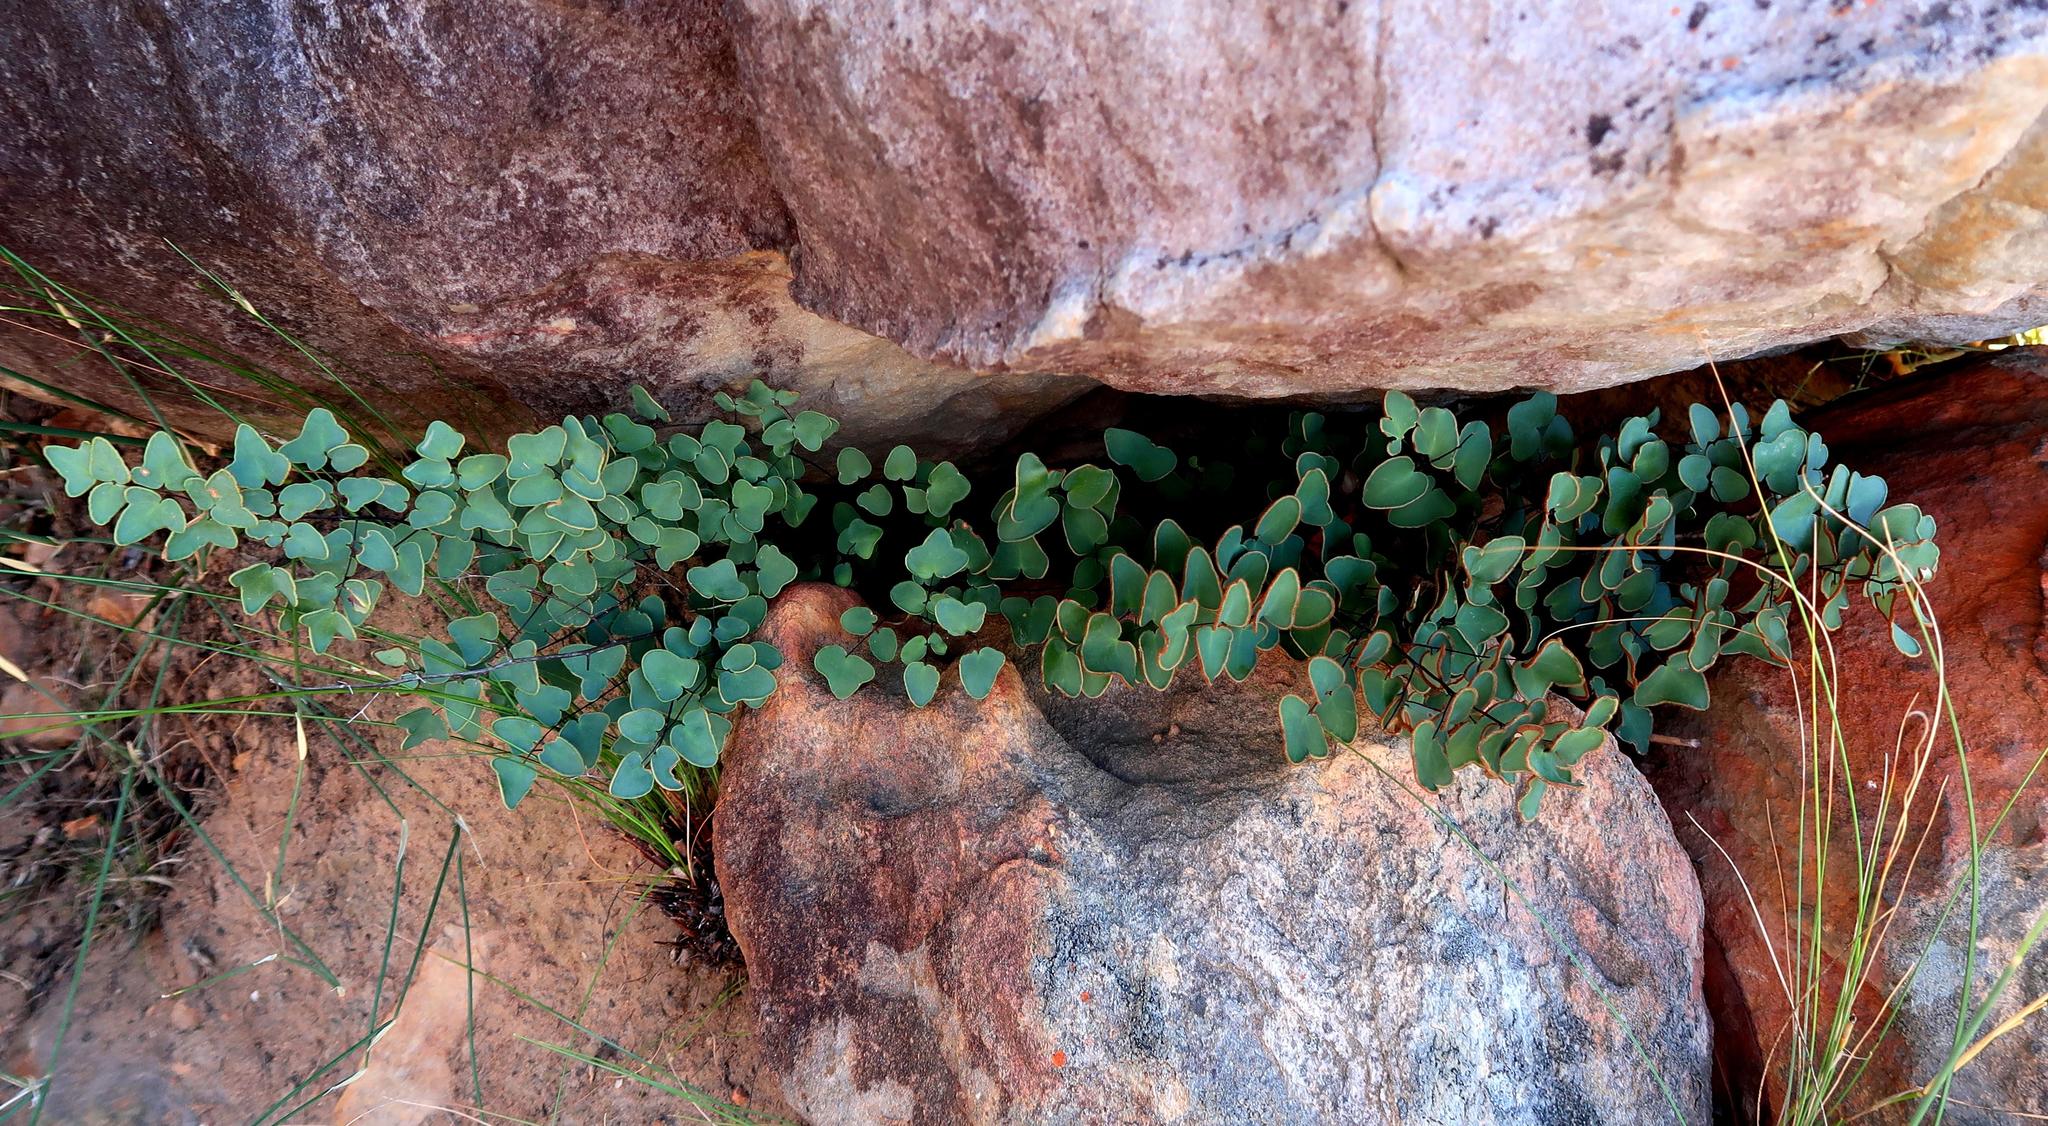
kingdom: Plantae
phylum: Tracheophyta
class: Polypodiopsida
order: Polypodiales
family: Pteridaceae
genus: Pellaea
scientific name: Pellaea calomelanos
